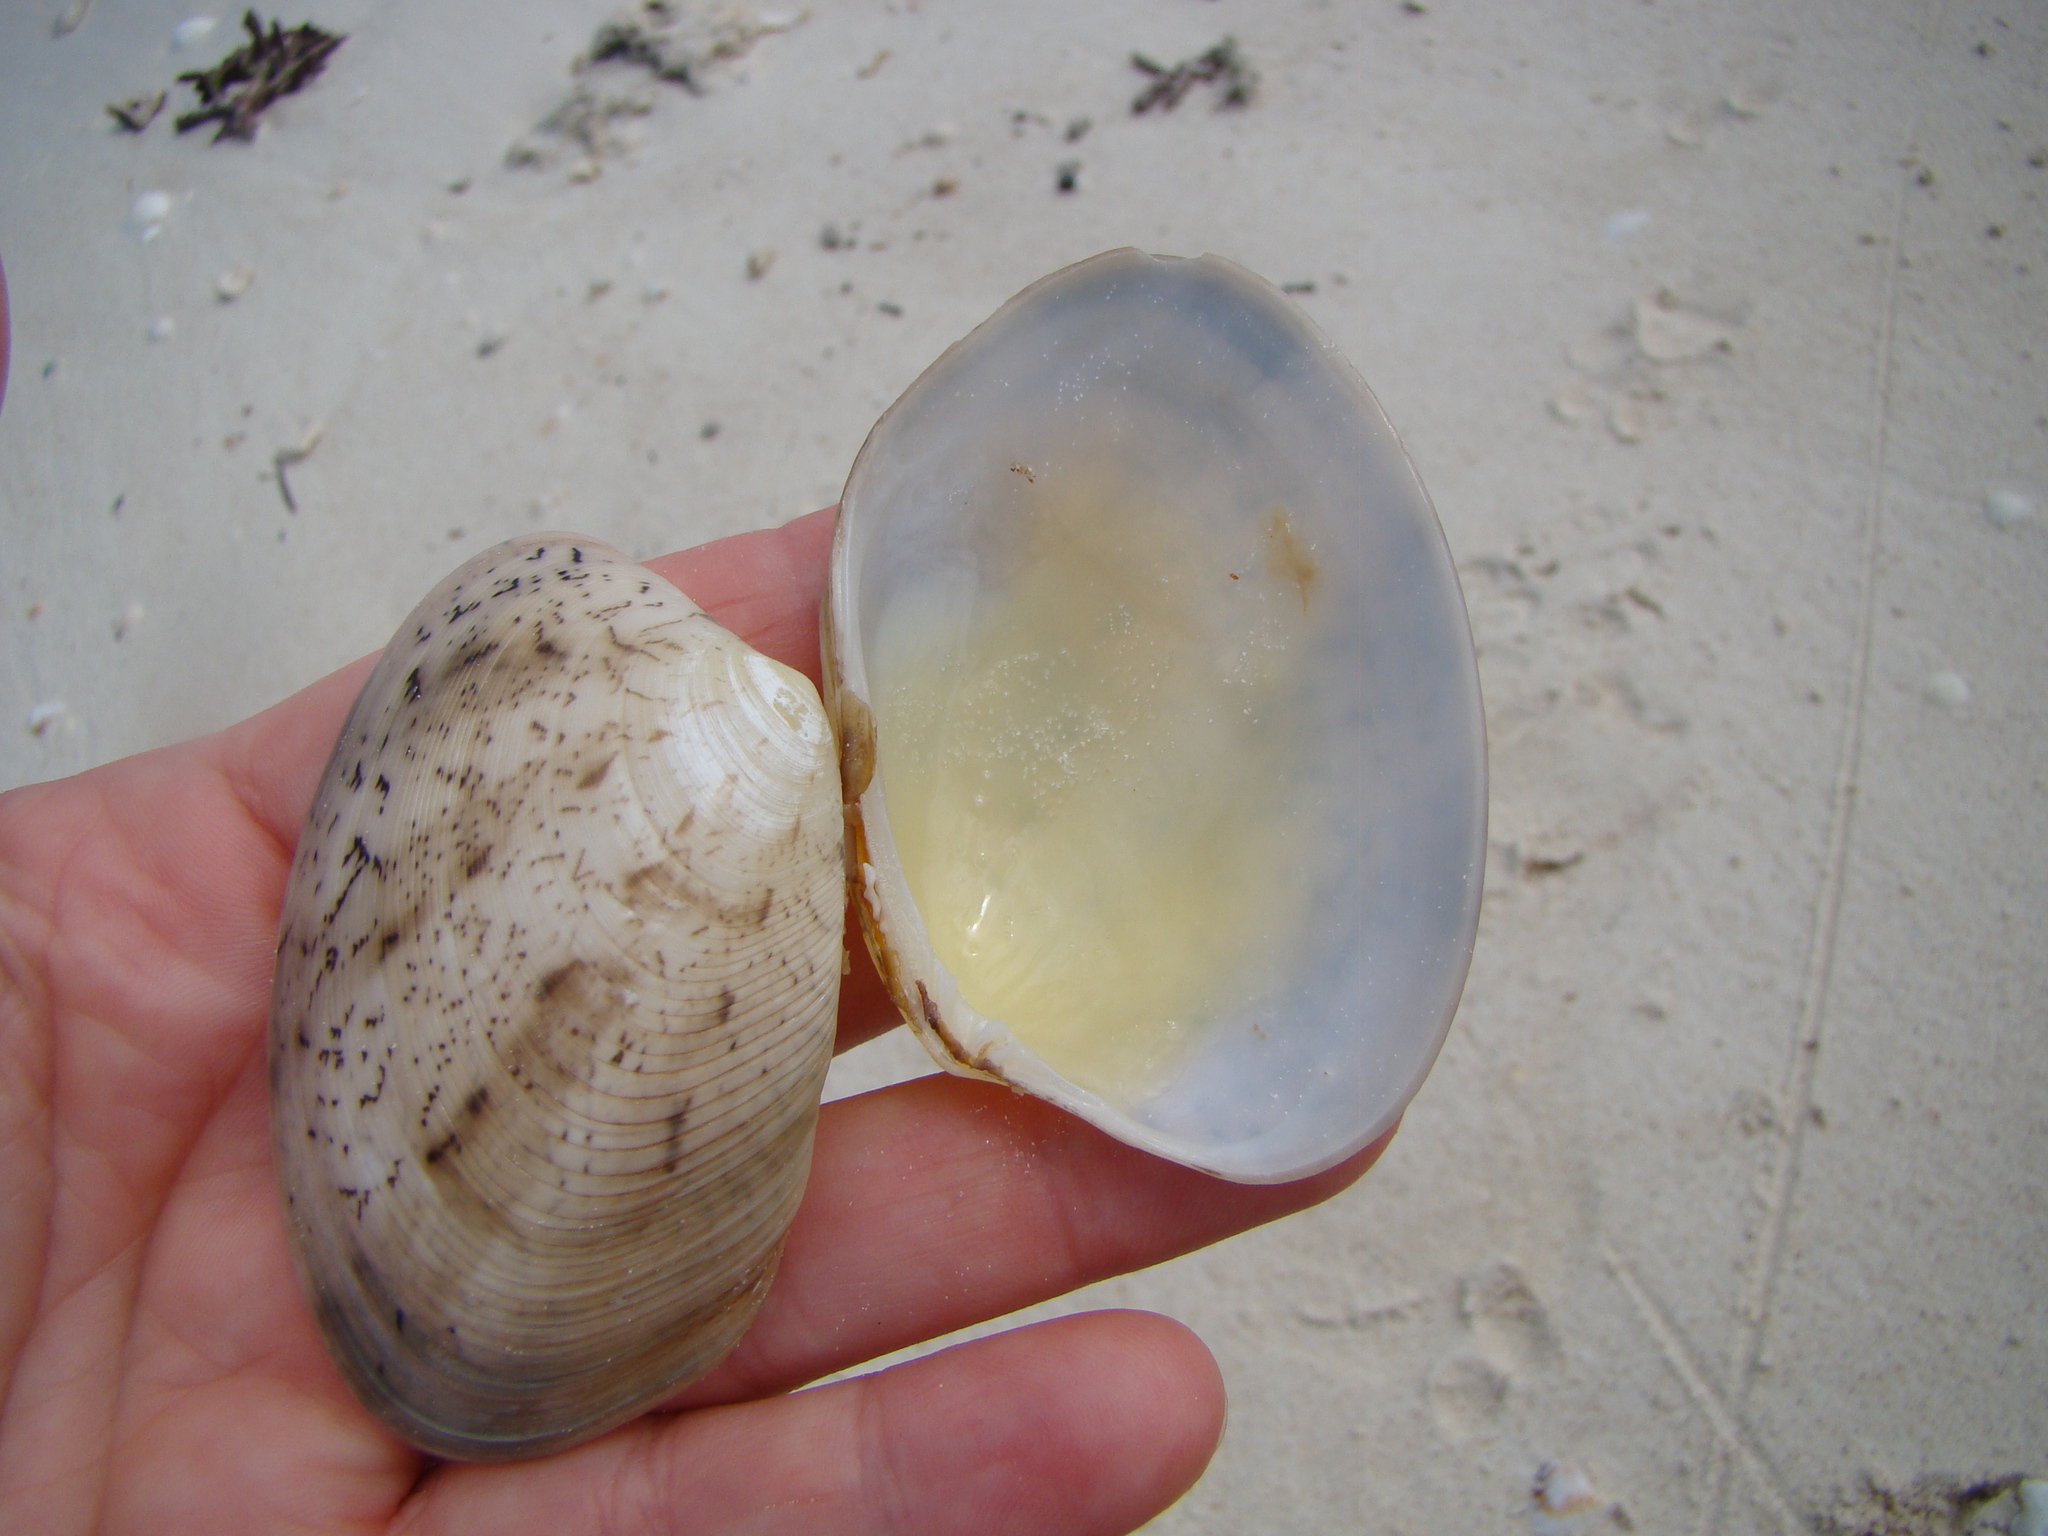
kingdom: Animalia
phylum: Mollusca
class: Bivalvia
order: Venerida
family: Veneridae
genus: Tapes
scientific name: Tapes literatus
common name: Lettered carpet shell
